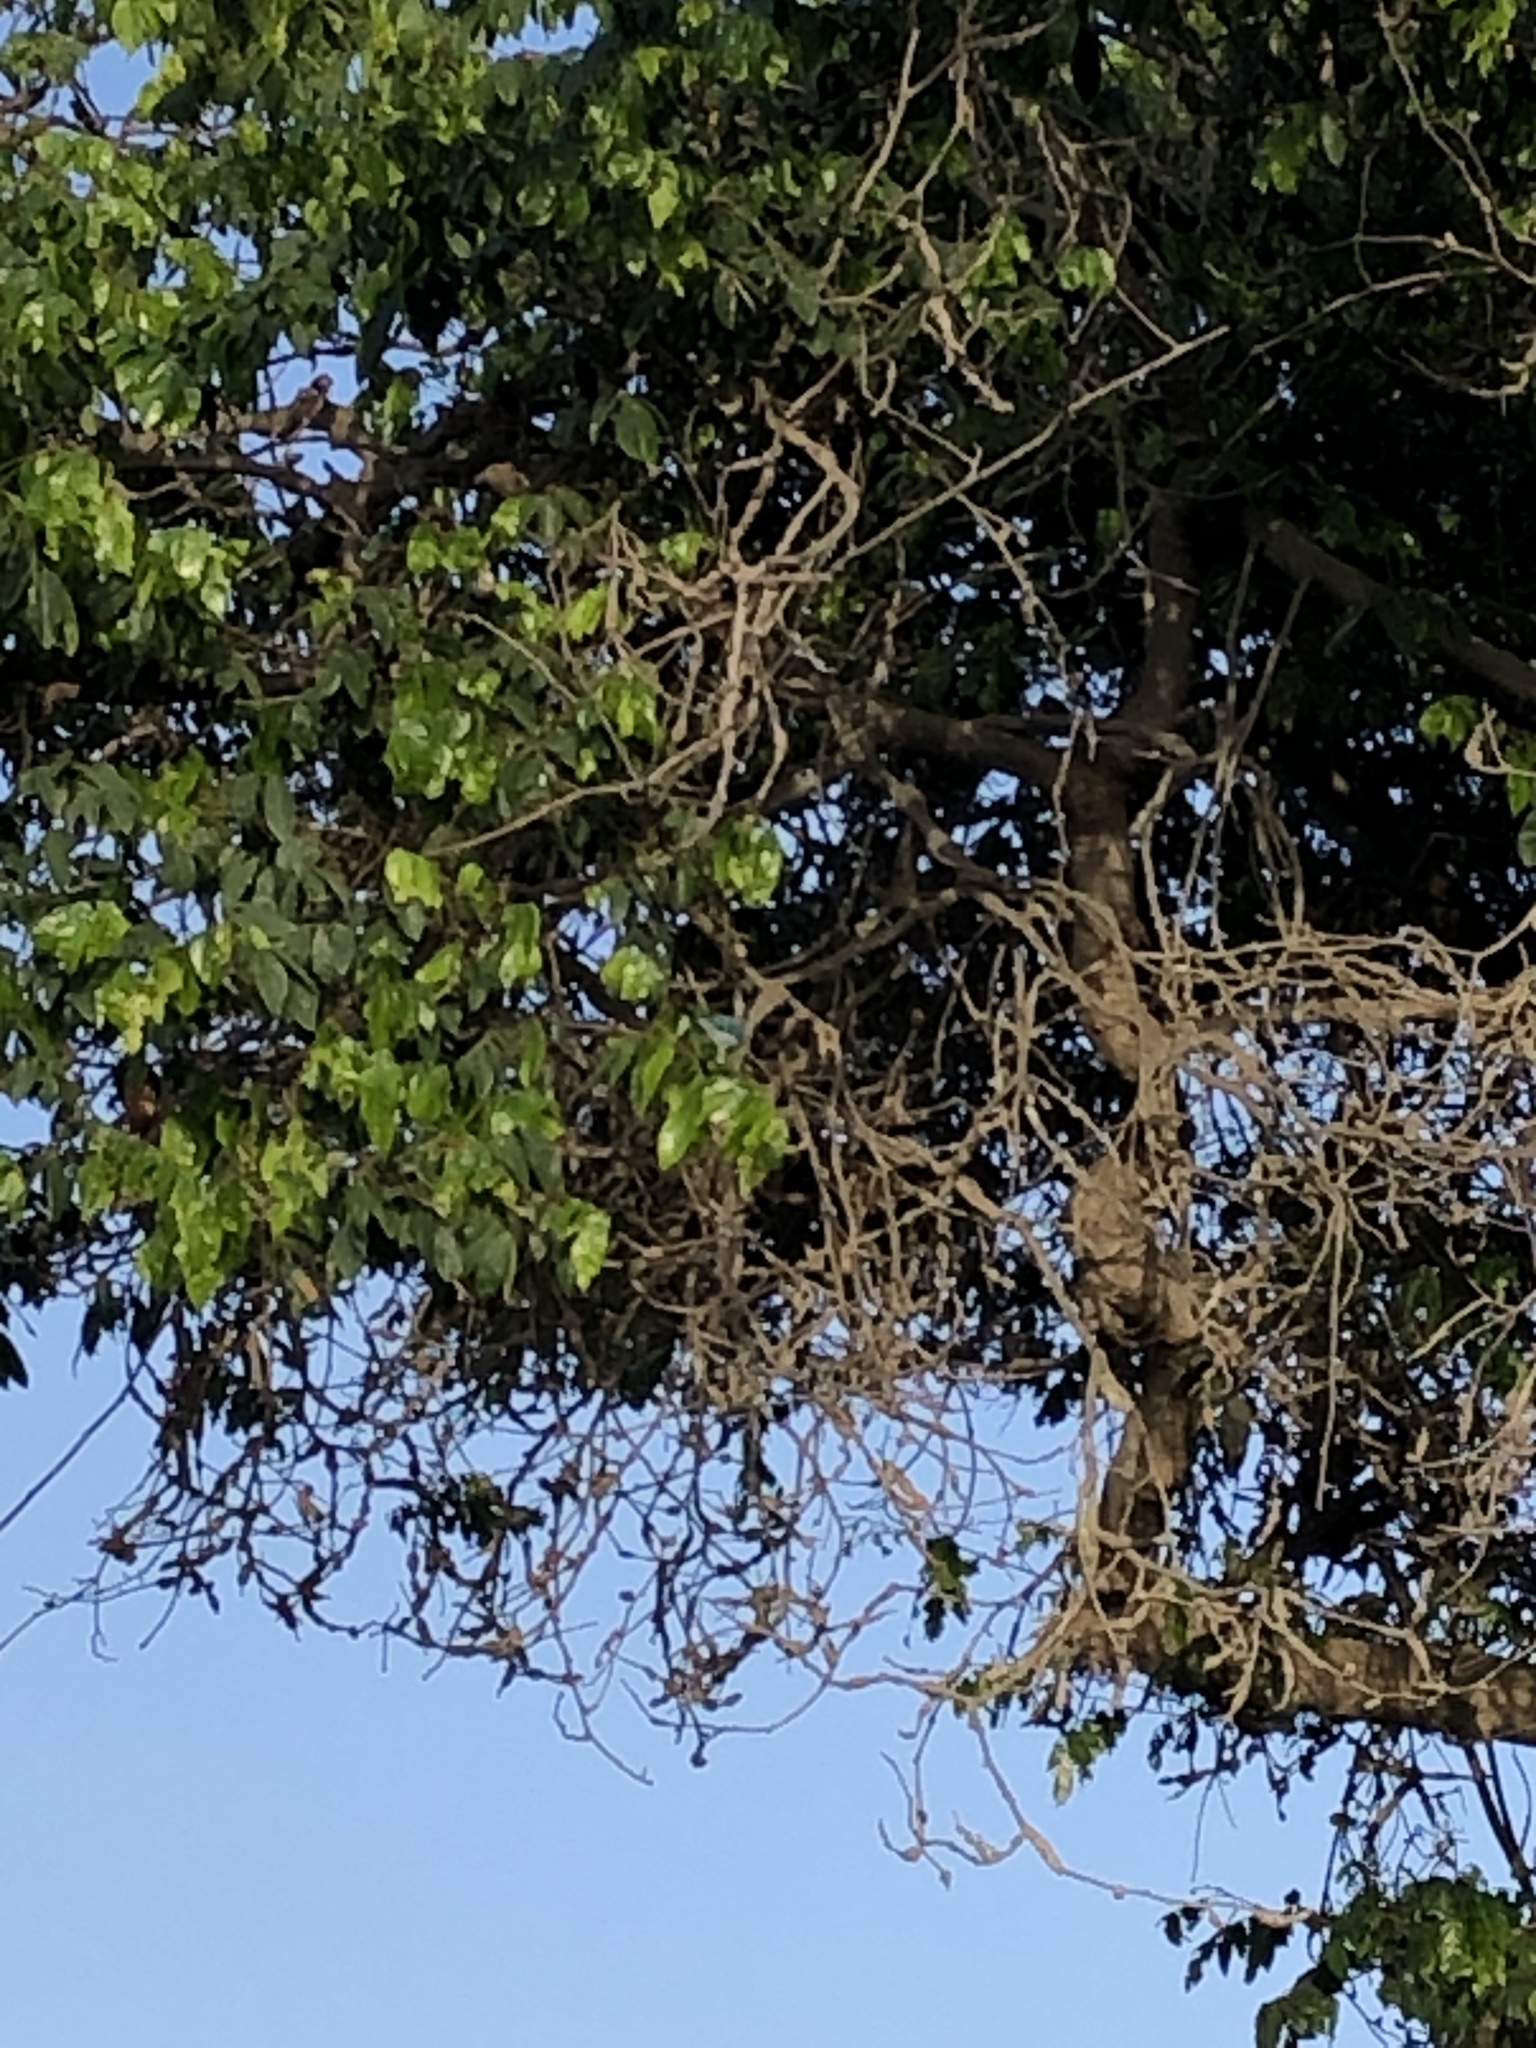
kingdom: Animalia
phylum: Chordata
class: Aves
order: Passeriformes
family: Thraupidae
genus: Thraupis
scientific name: Thraupis episcopus
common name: Blue-grey tanager
